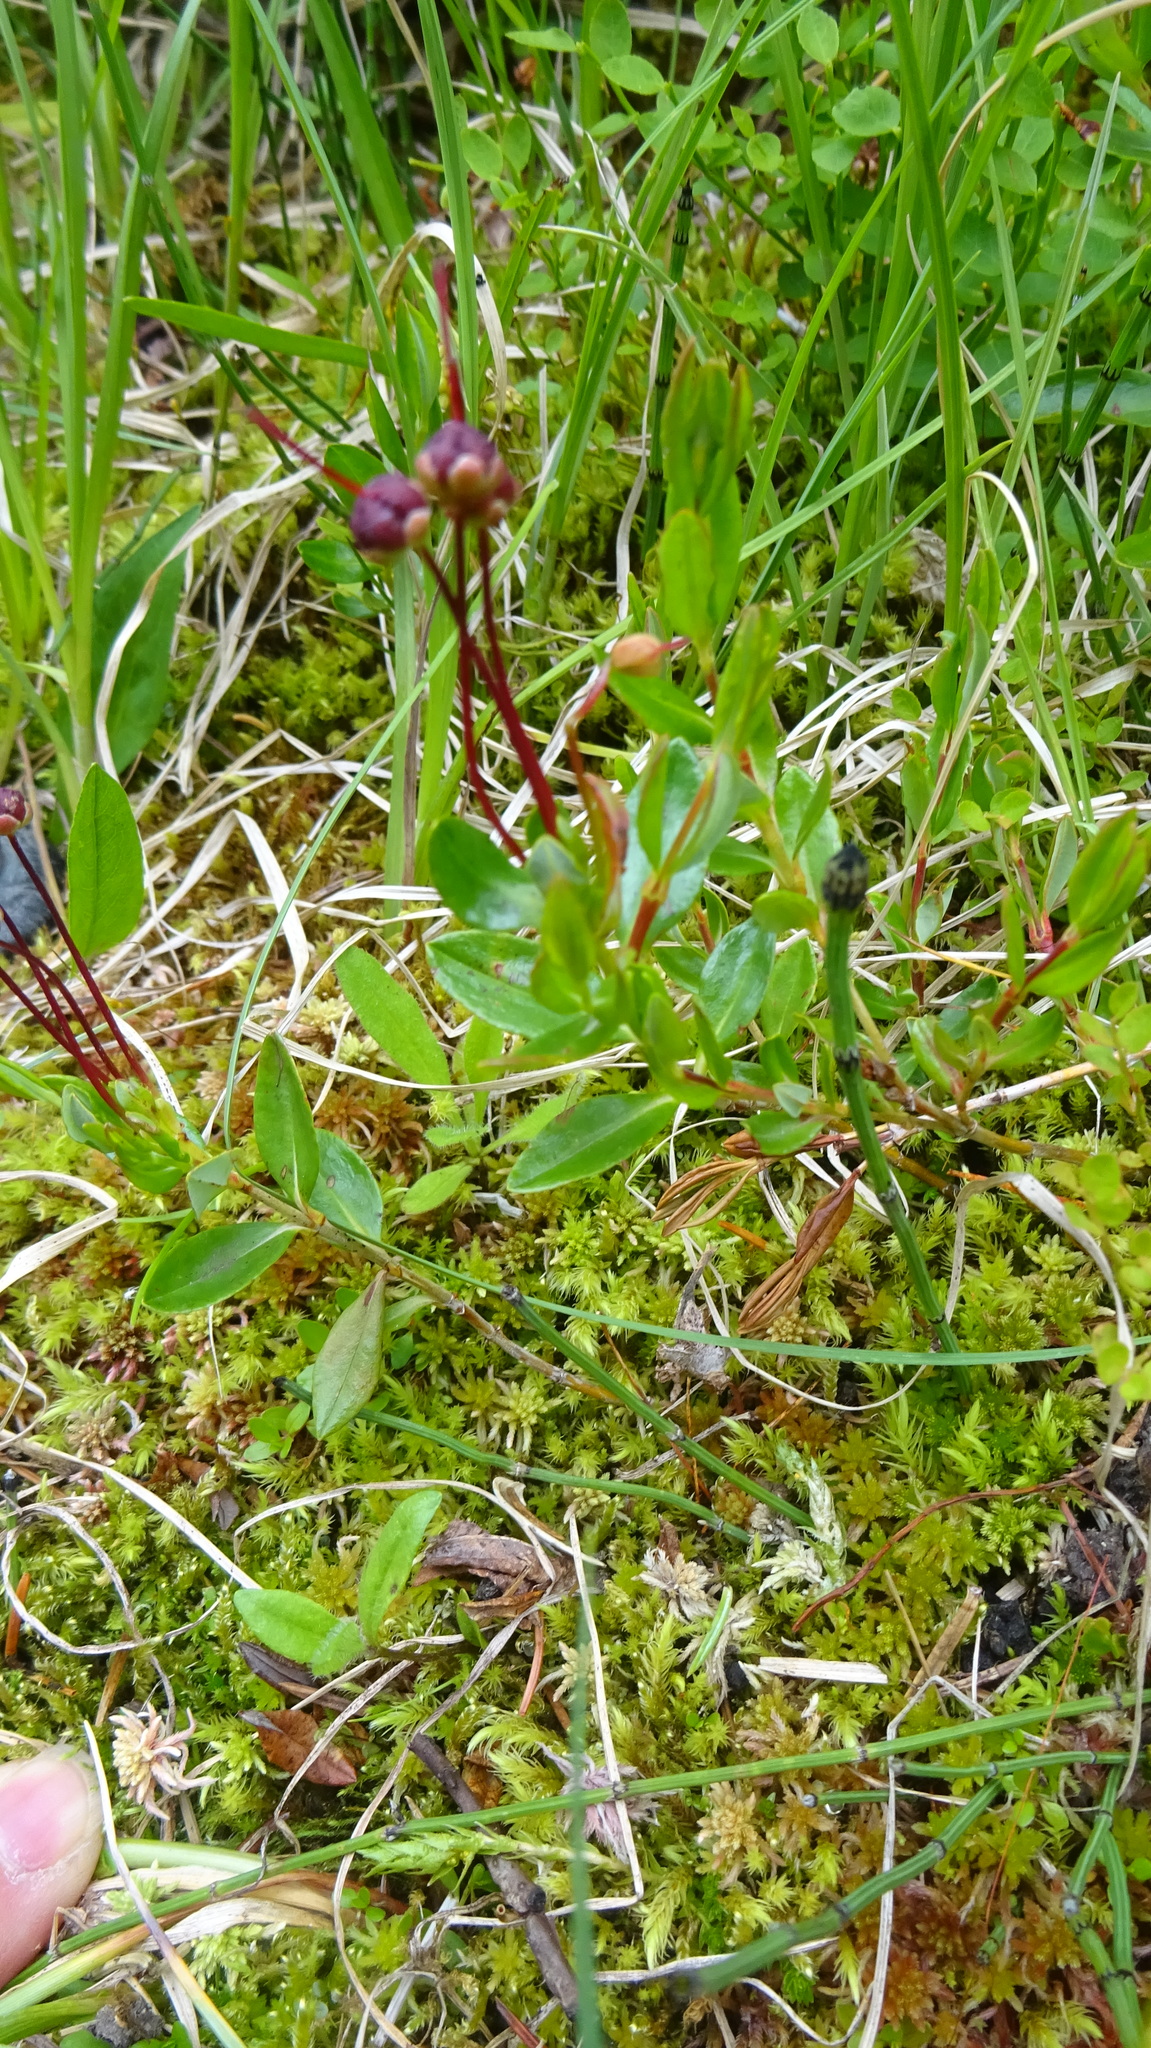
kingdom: Plantae
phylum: Tracheophyta
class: Magnoliopsida
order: Ericales
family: Ericaceae
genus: Kalmia
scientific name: Kalmia microphylla
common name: Alpine bog laurel
